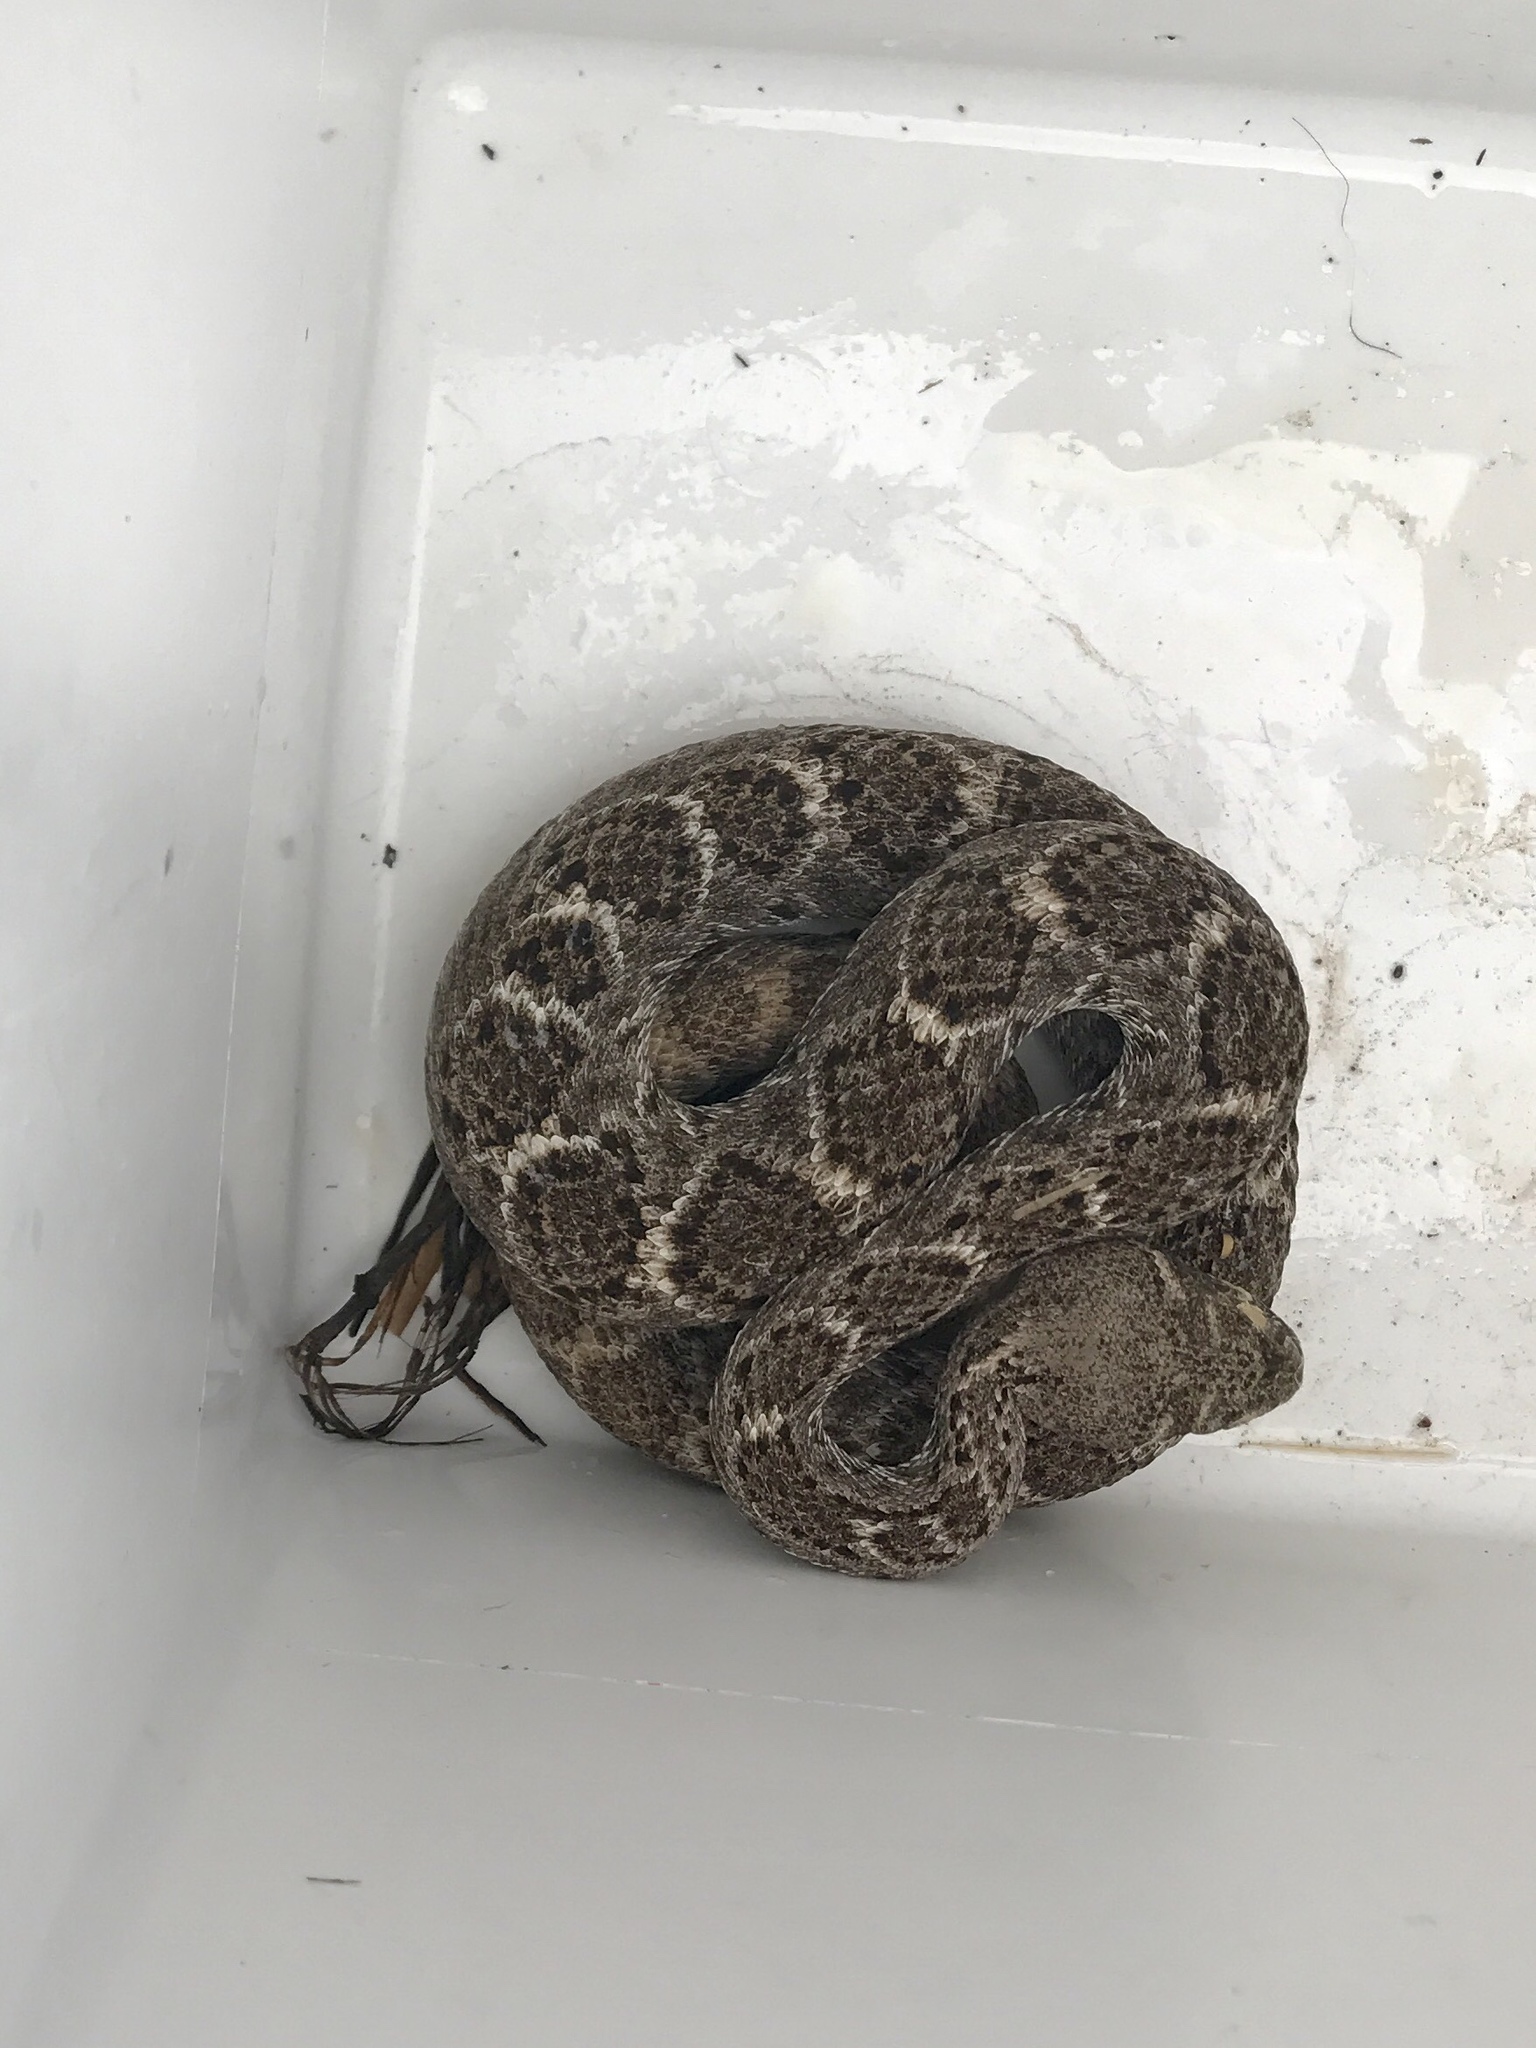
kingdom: Animalia
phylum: Chordata
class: Squamata
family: Viperidae
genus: Crotalus
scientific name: Crotalus atrox
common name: Western diamond-backed rattlesnake
